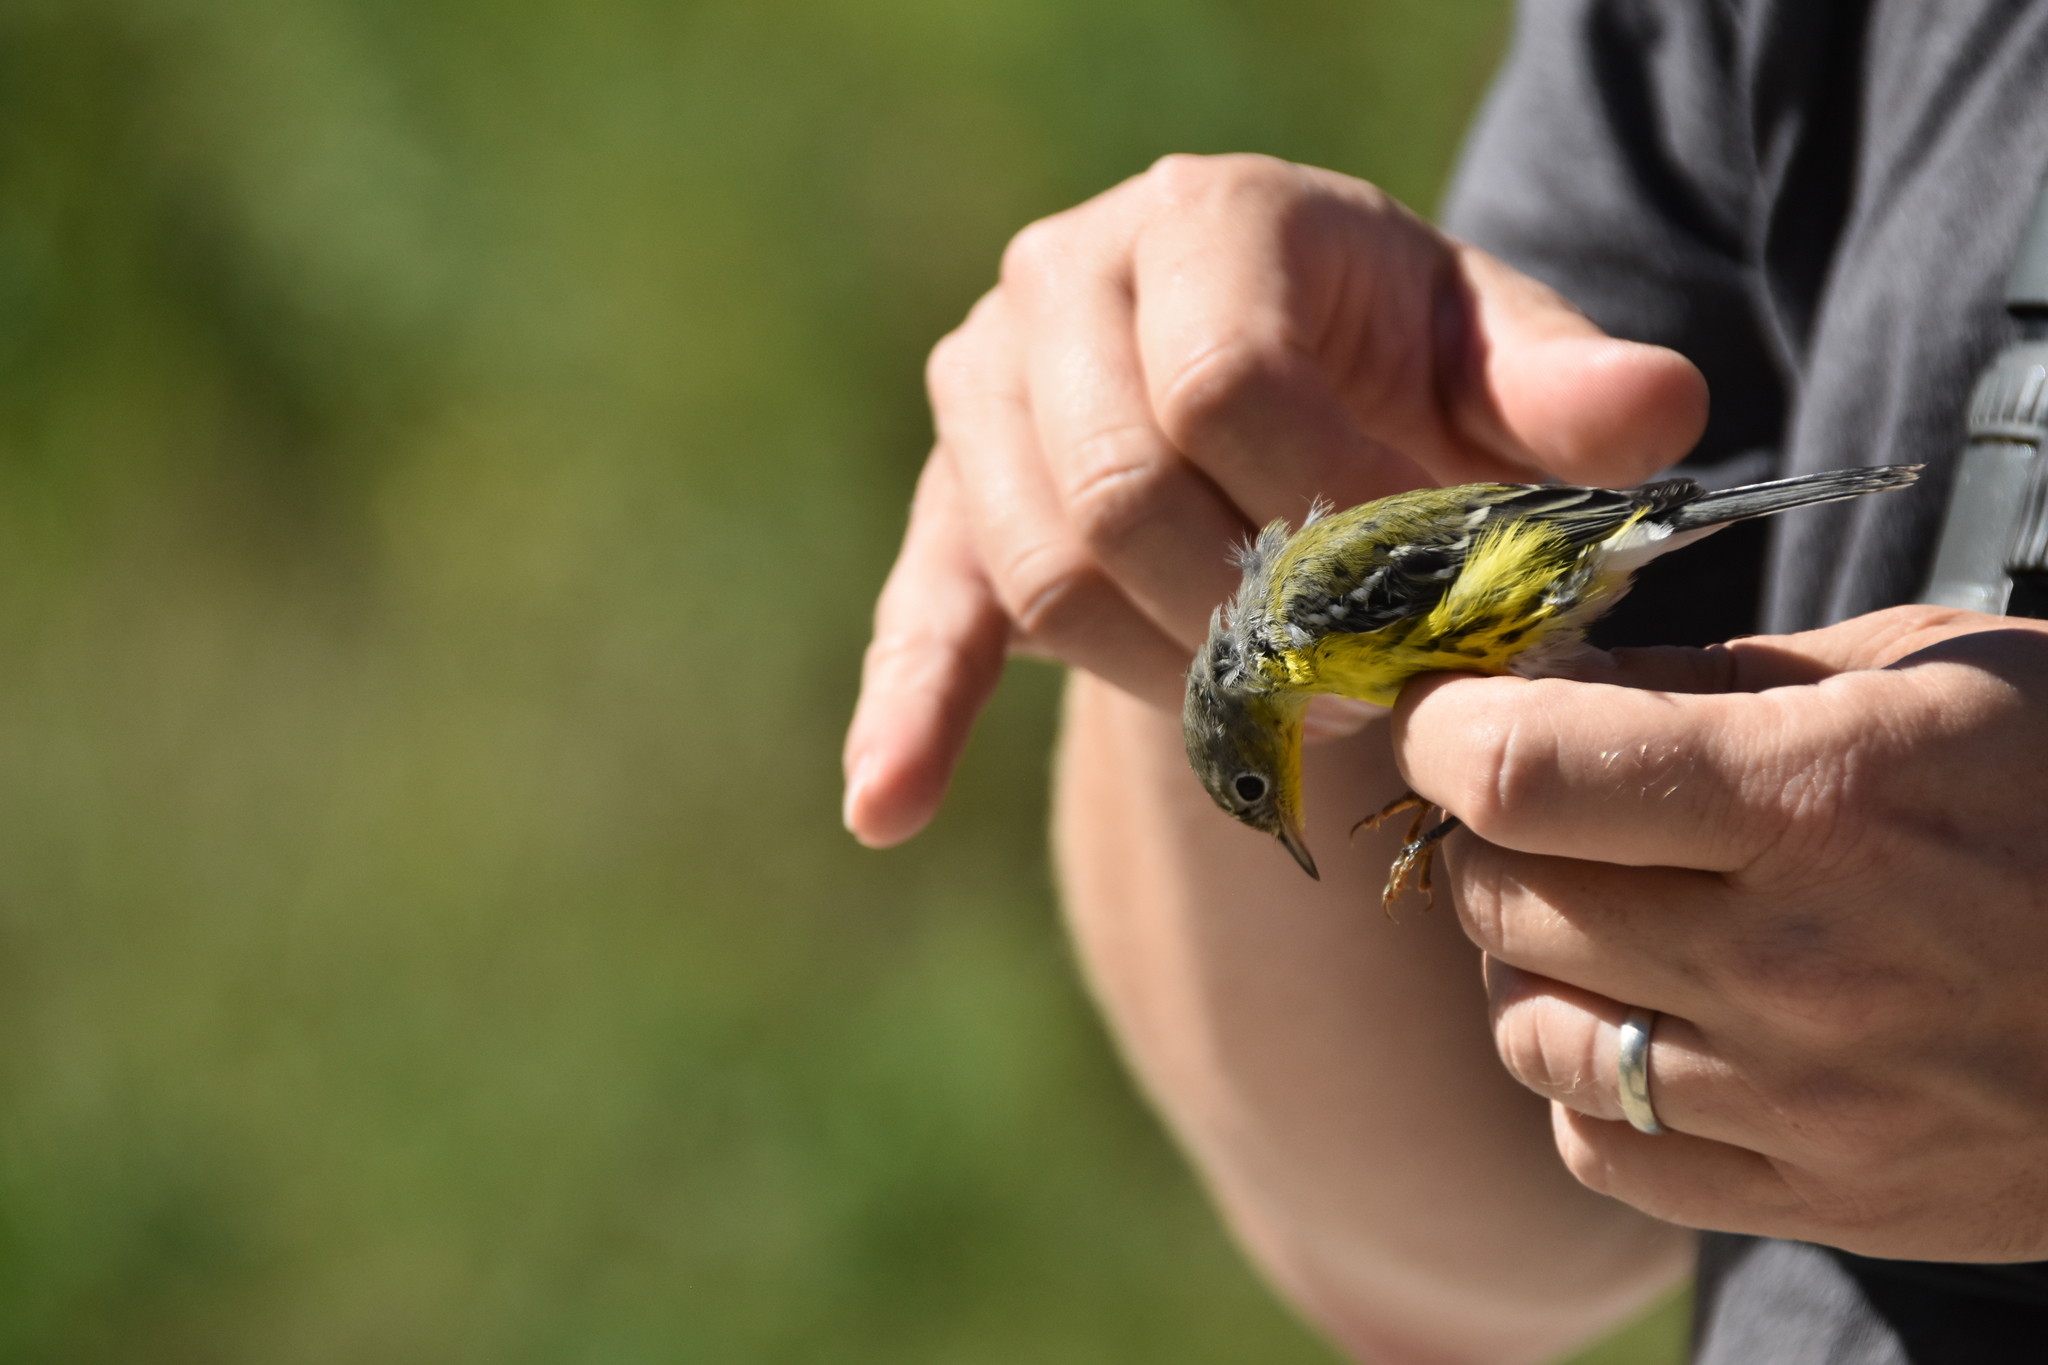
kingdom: Animalia
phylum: Chordata
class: Aves
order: Passeriformes
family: Parulidae
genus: Setophaga
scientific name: Setophaga magnolia
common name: Magnolia warbler
